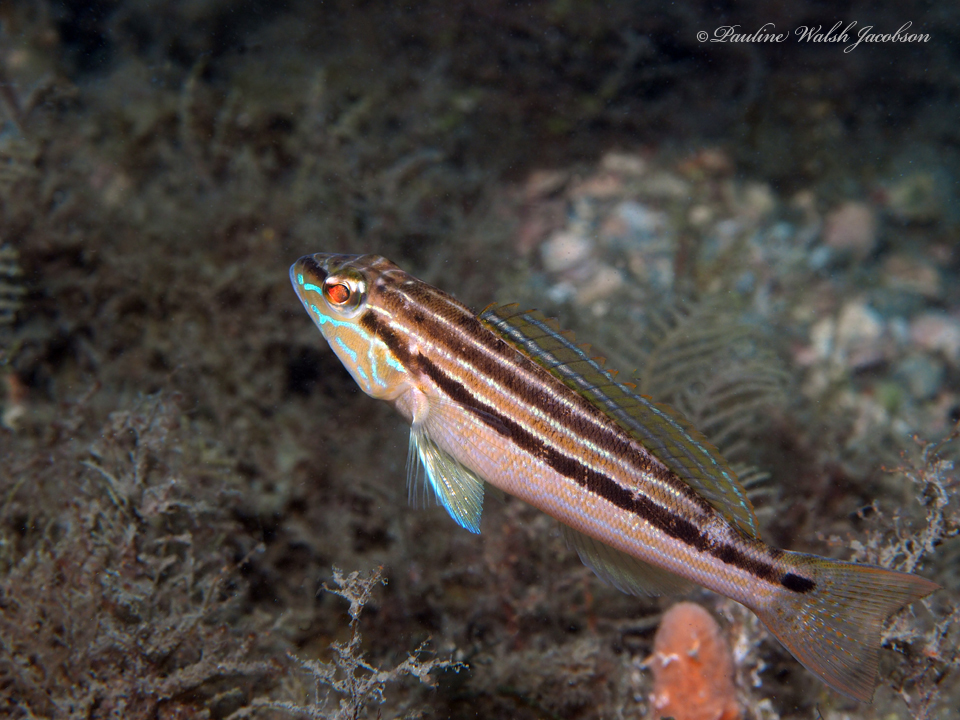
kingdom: Animalia
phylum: Chordata
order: Perciformes
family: Serranidae
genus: Diplectrum
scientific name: Diplectrum formosum
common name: Sand perch
